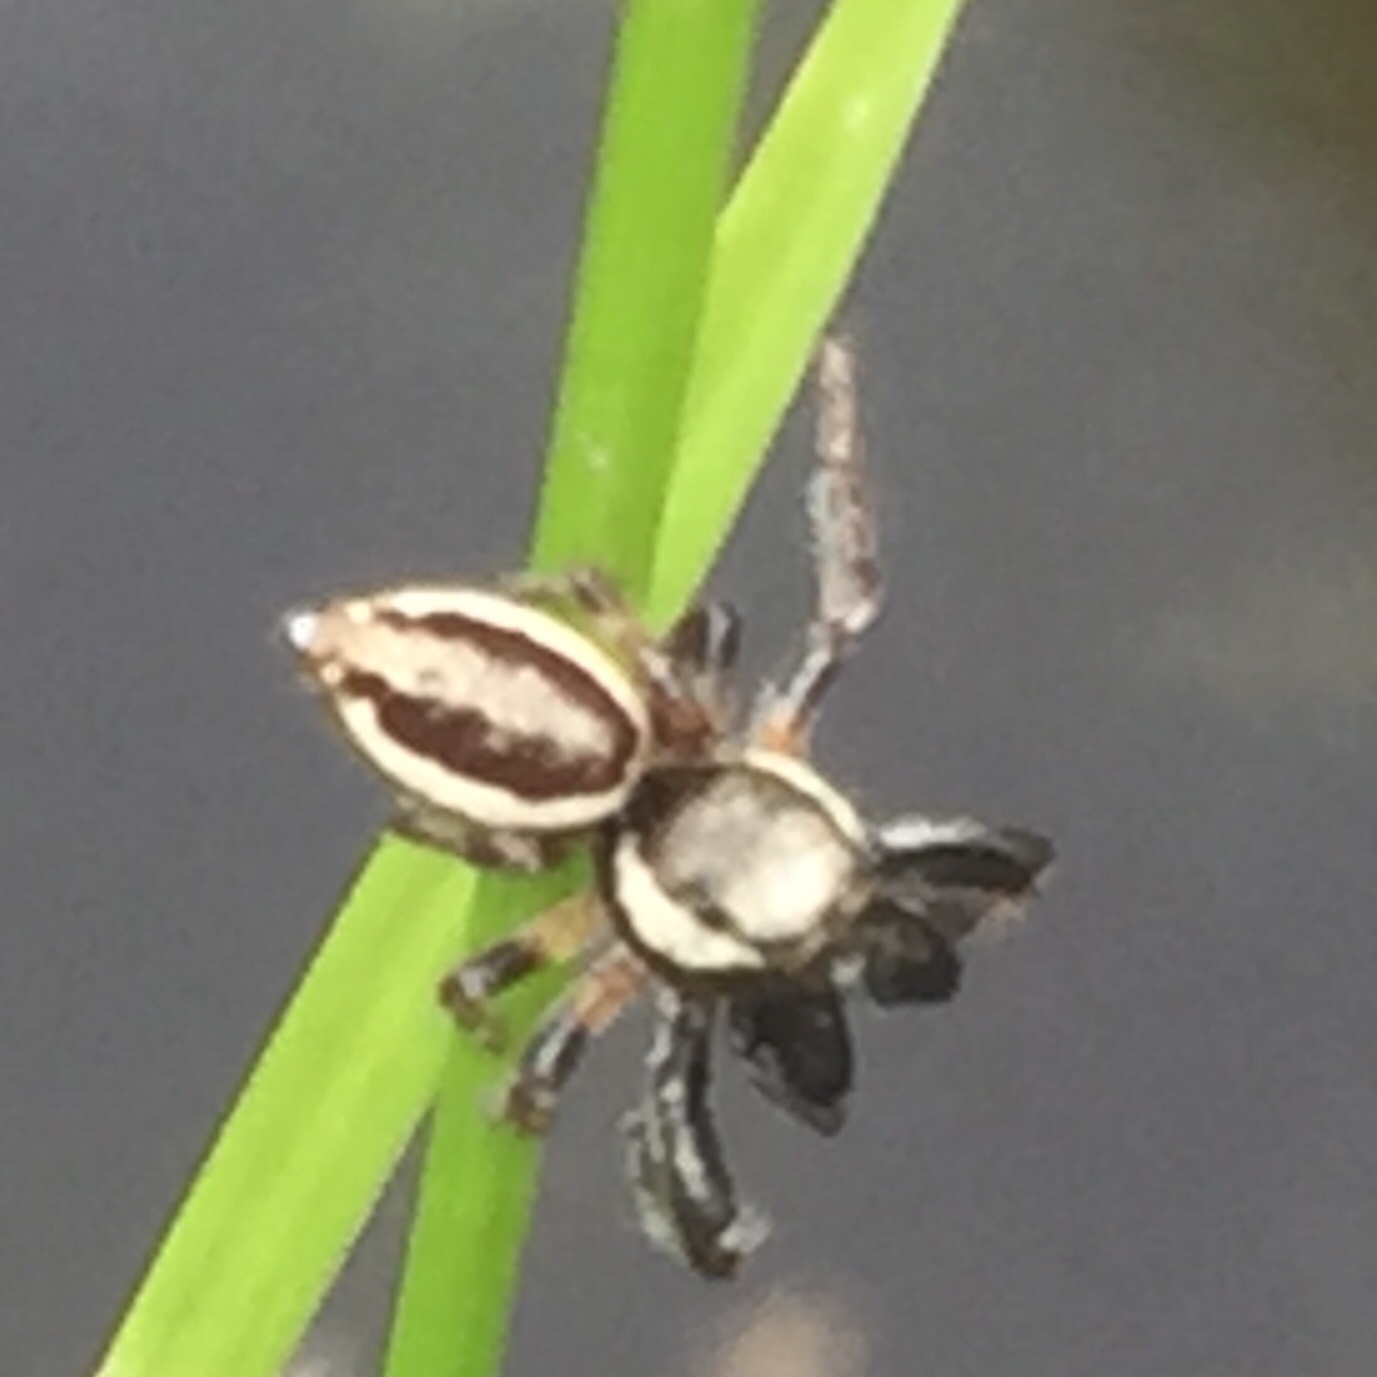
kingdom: Animalia
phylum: Arthropoda
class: Arachnida
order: Araneae
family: Salticidae
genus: Eris
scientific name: Eris militaris
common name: Bronze jumper
